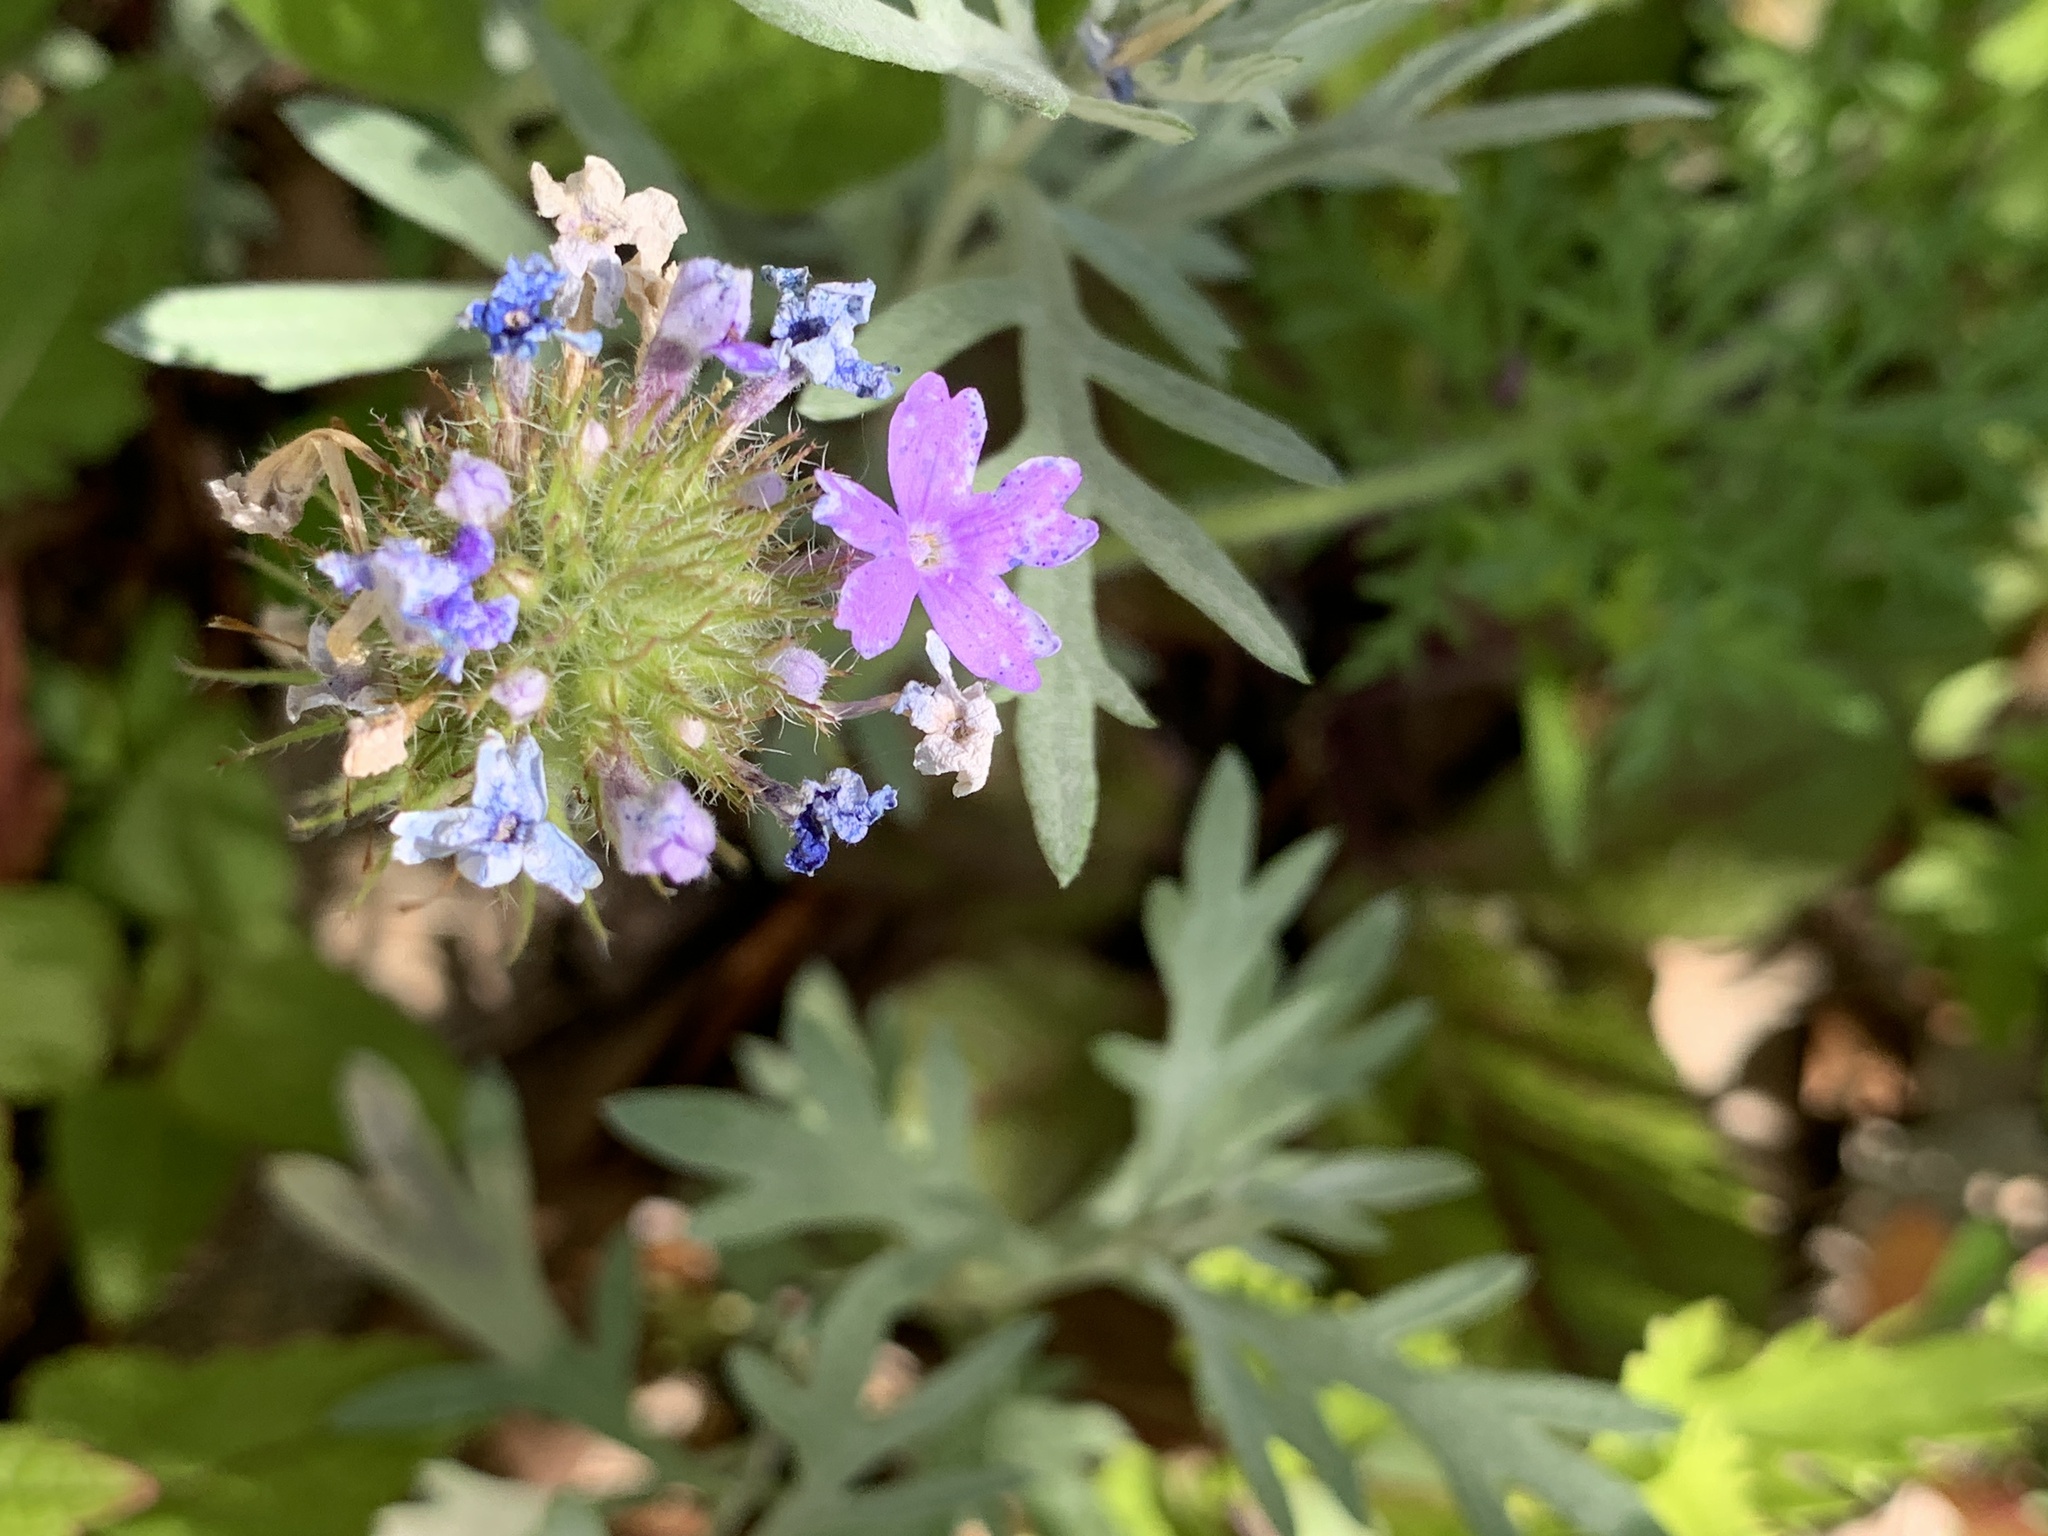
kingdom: Plantae
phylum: Tracheophyta
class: Magnoliopsida
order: Lamiales
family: Verbenaceae
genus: Verbena
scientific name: Verbena bipinnatifida
